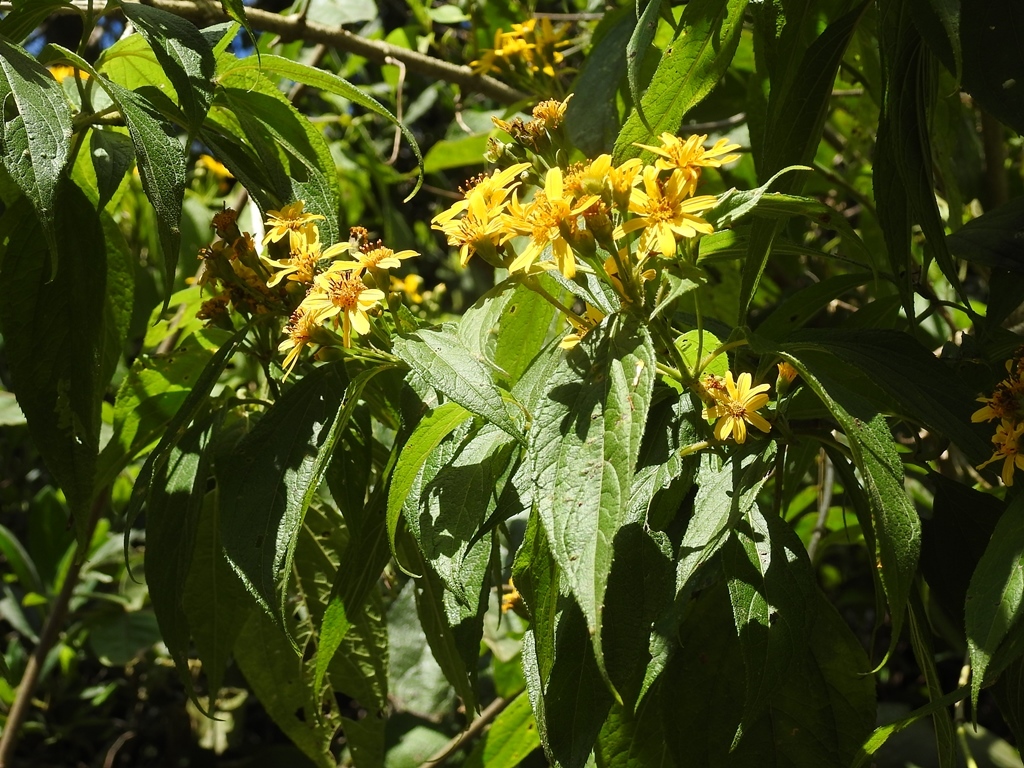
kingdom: Plantae
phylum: Tracheophyta
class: Magnoliopsida
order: Asterales
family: Asteraceae
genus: Perymenium
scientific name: Perymenium grande
